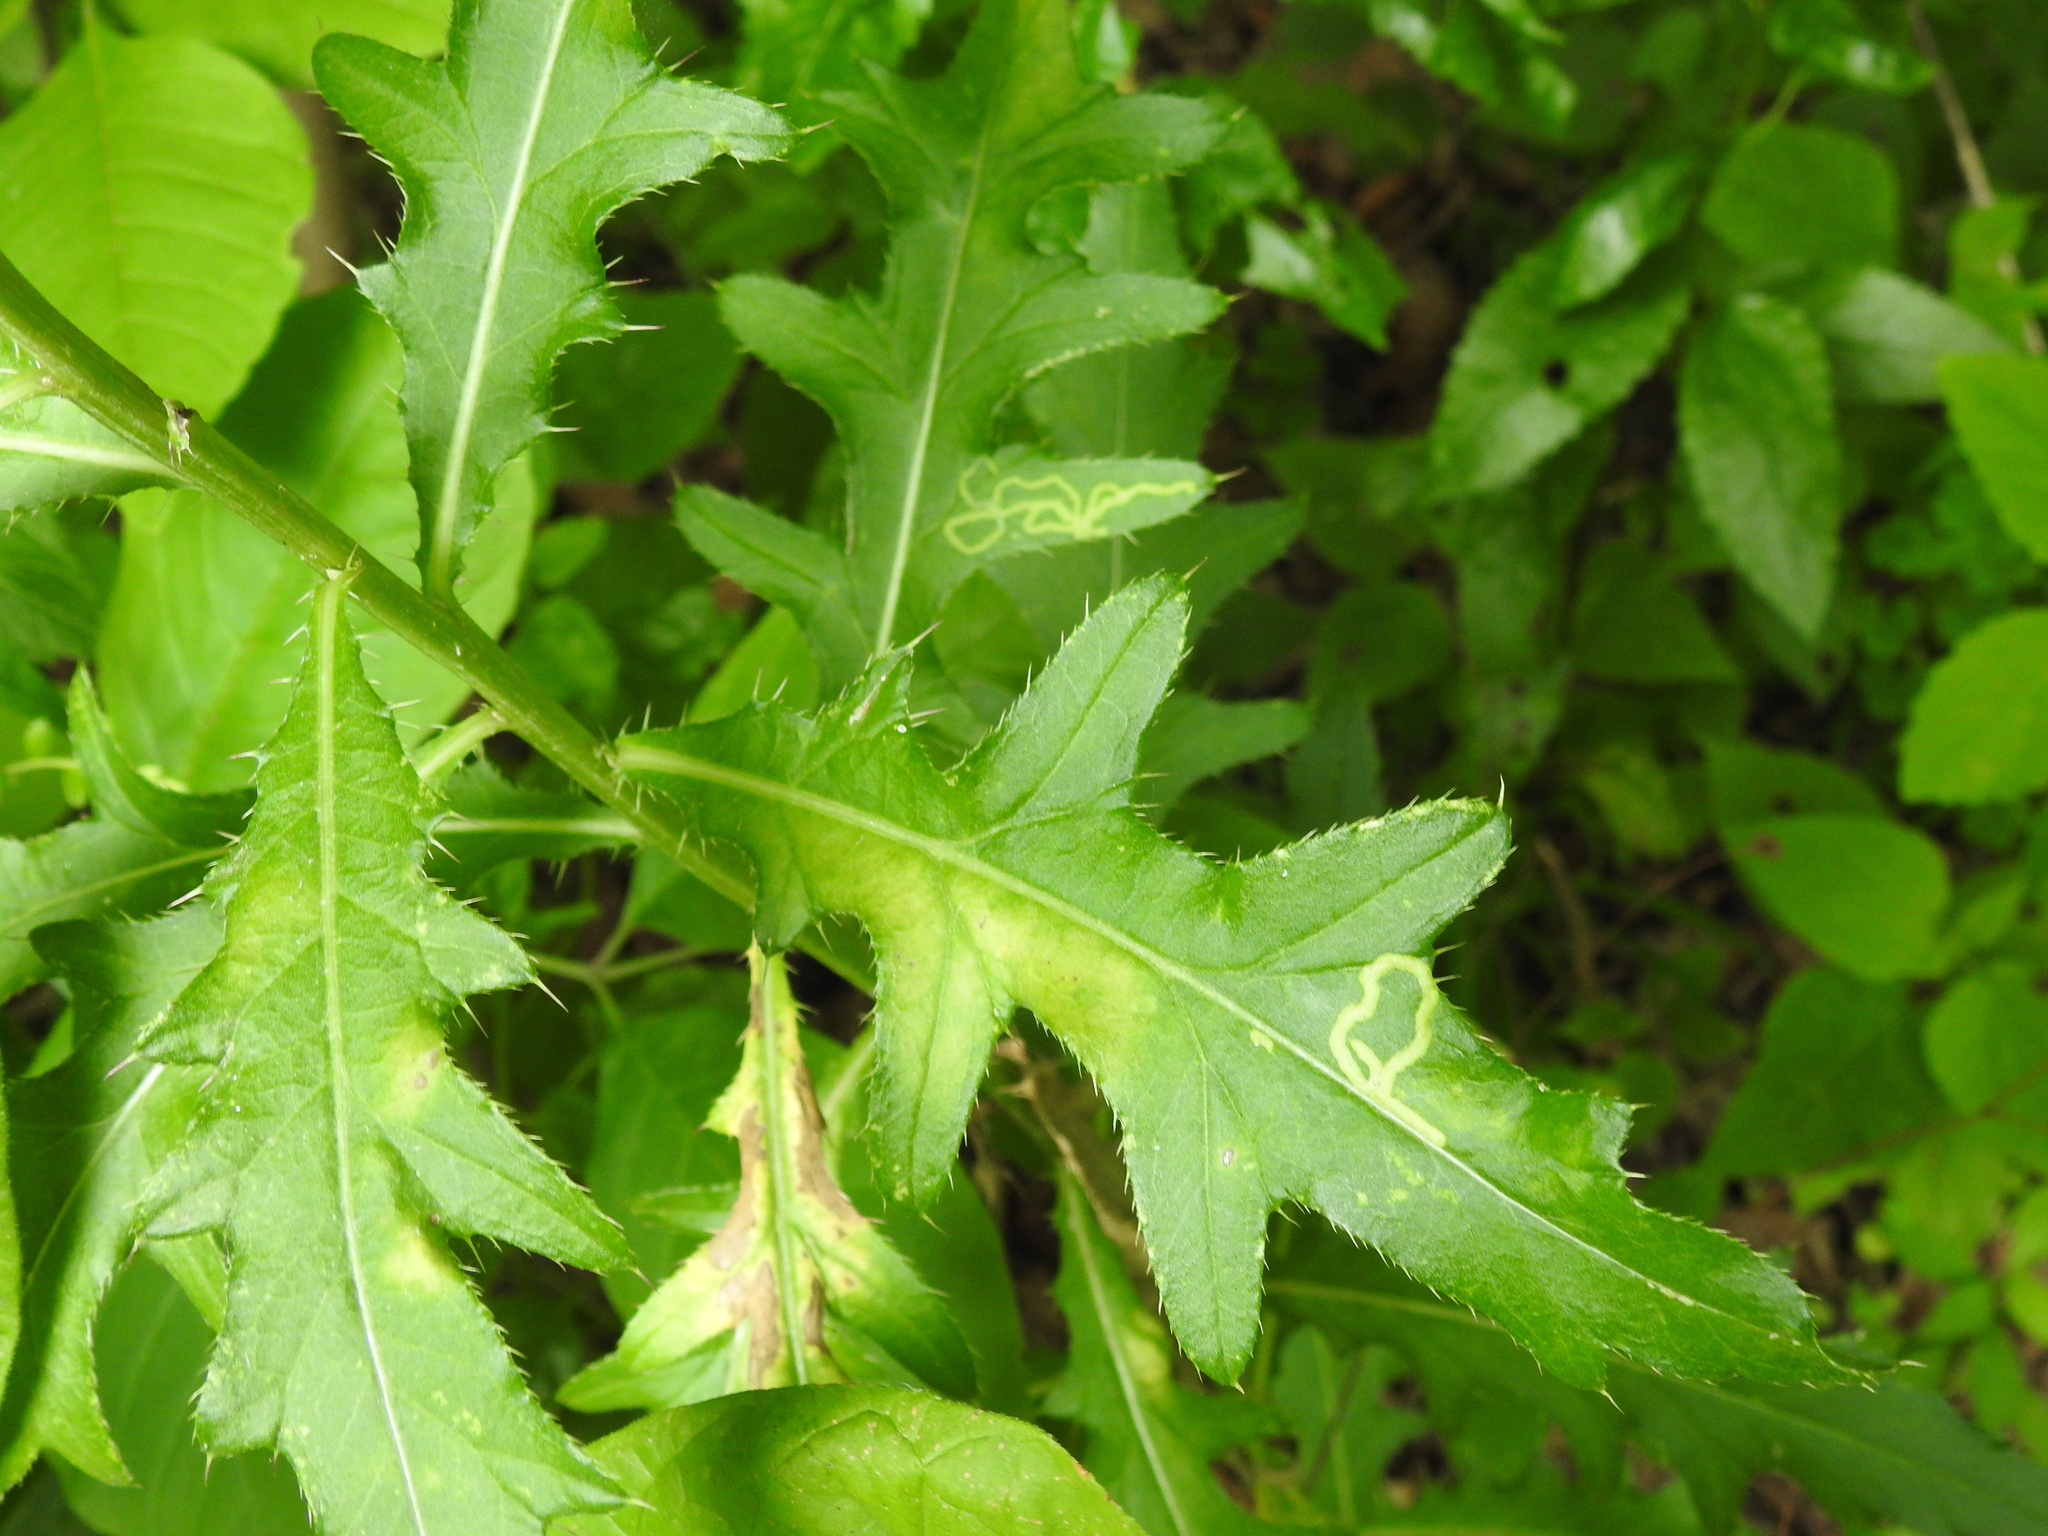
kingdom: Animalia
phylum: Arthropoda
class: Insecta
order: Diptera
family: Agromyzidae
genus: Phytomyza
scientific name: Phytomyza spinaciae
